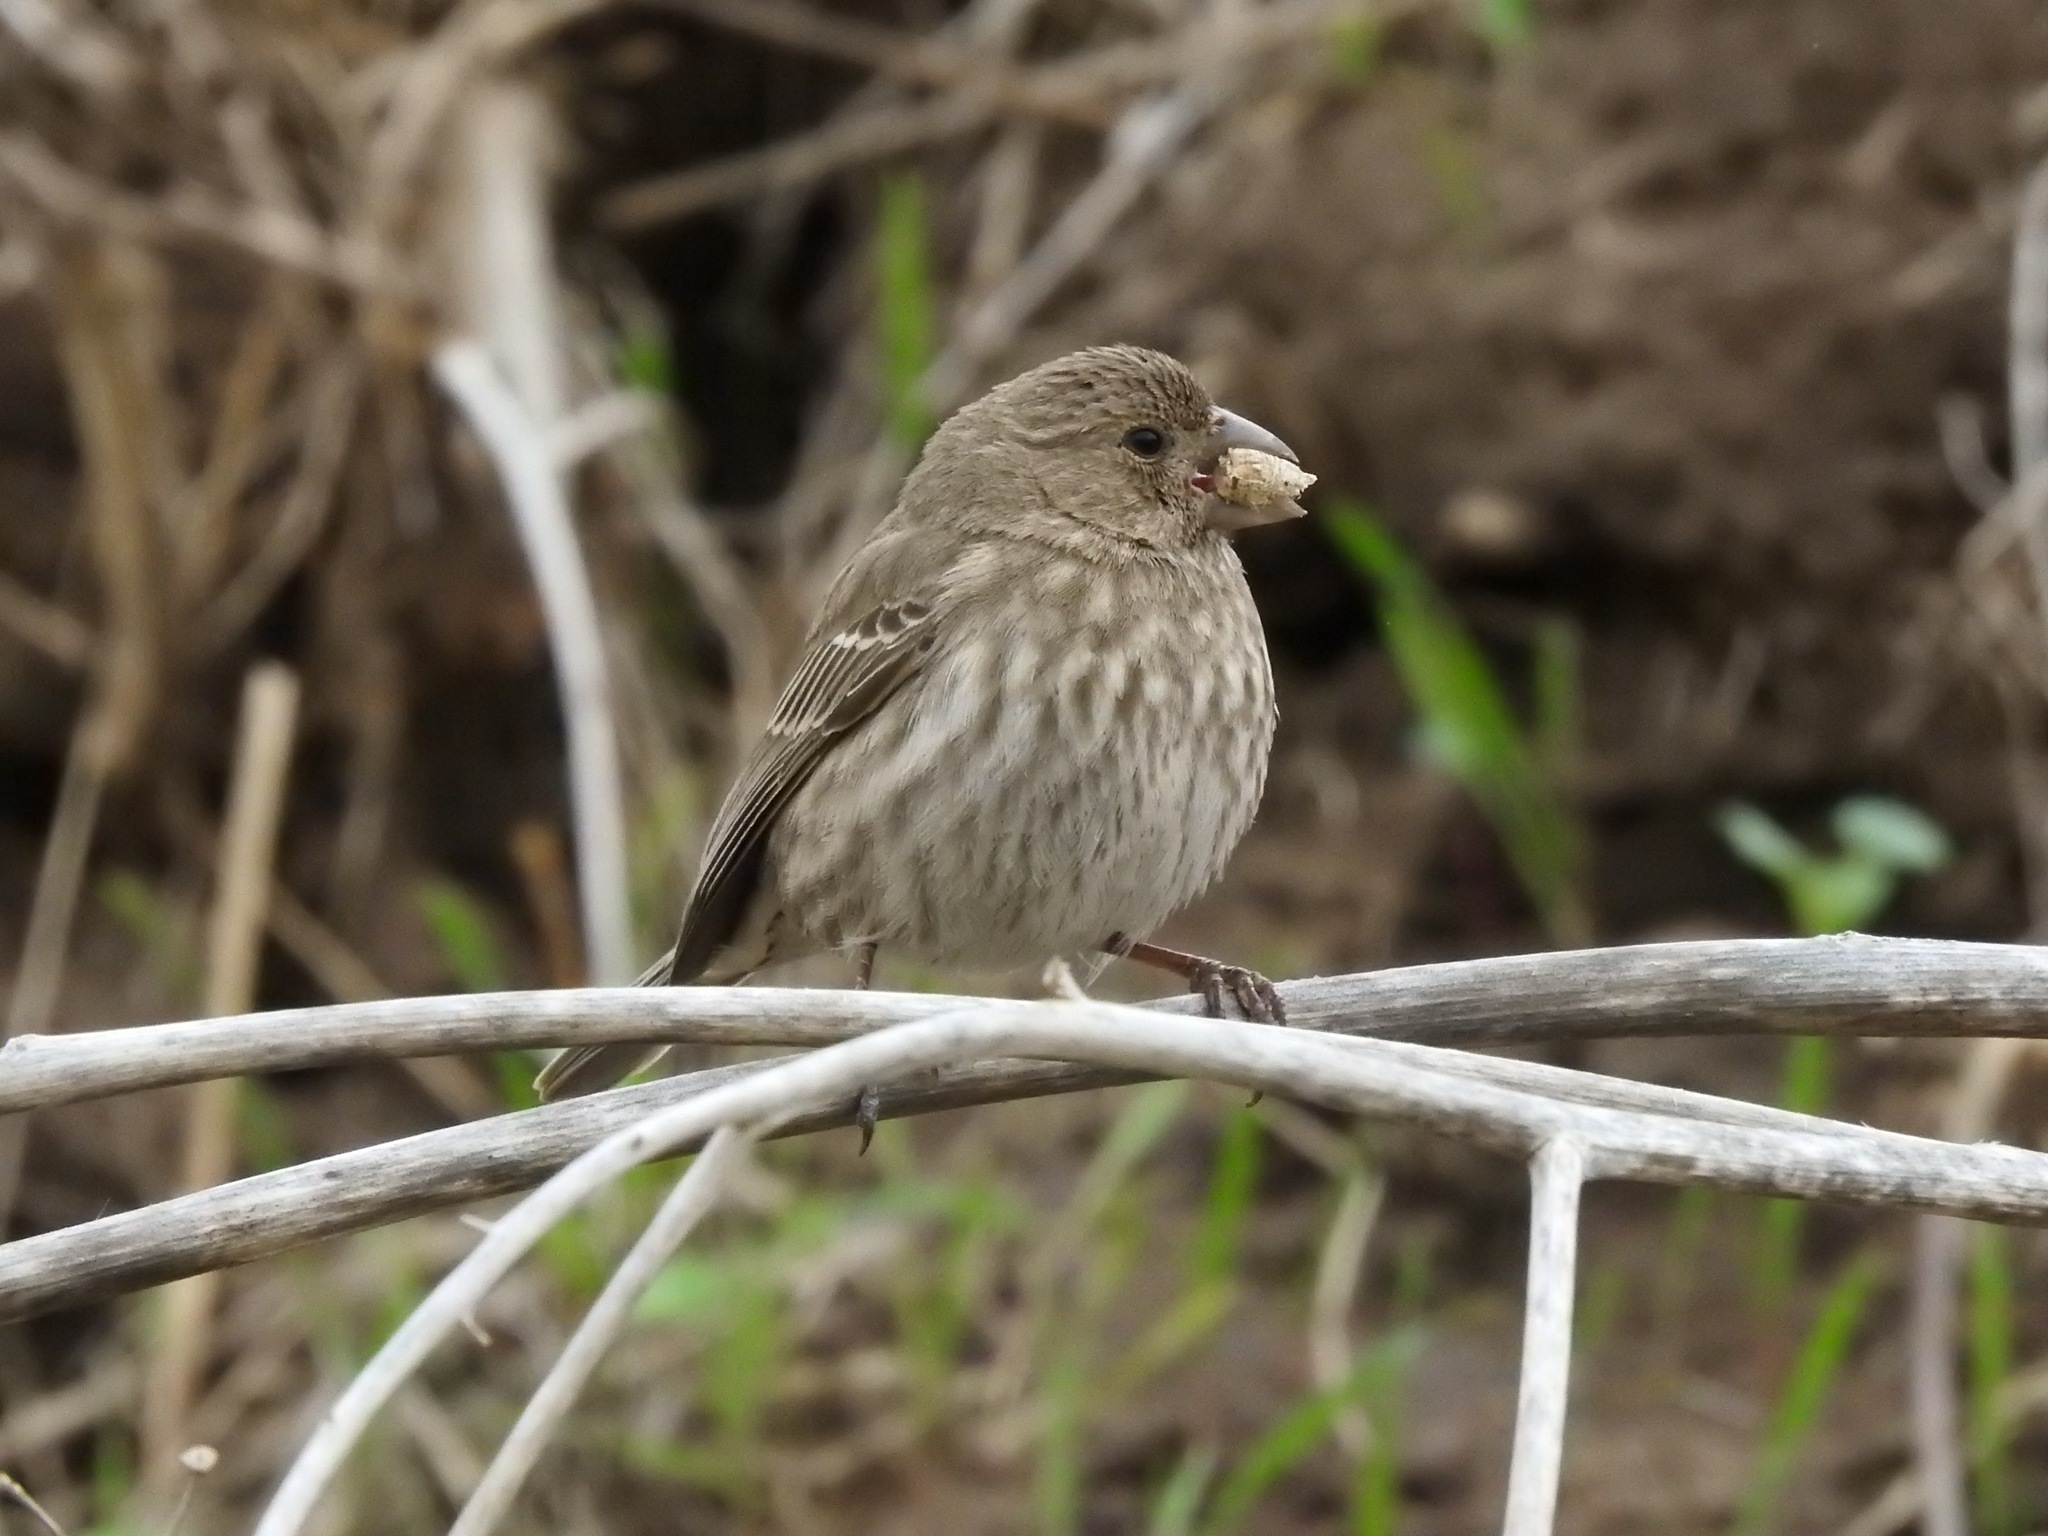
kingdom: Animalia
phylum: Chordata
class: Aves
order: Passeriformes
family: Fringillidae
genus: Haemorhous
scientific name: Haemorhous mexicanus
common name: House finch
